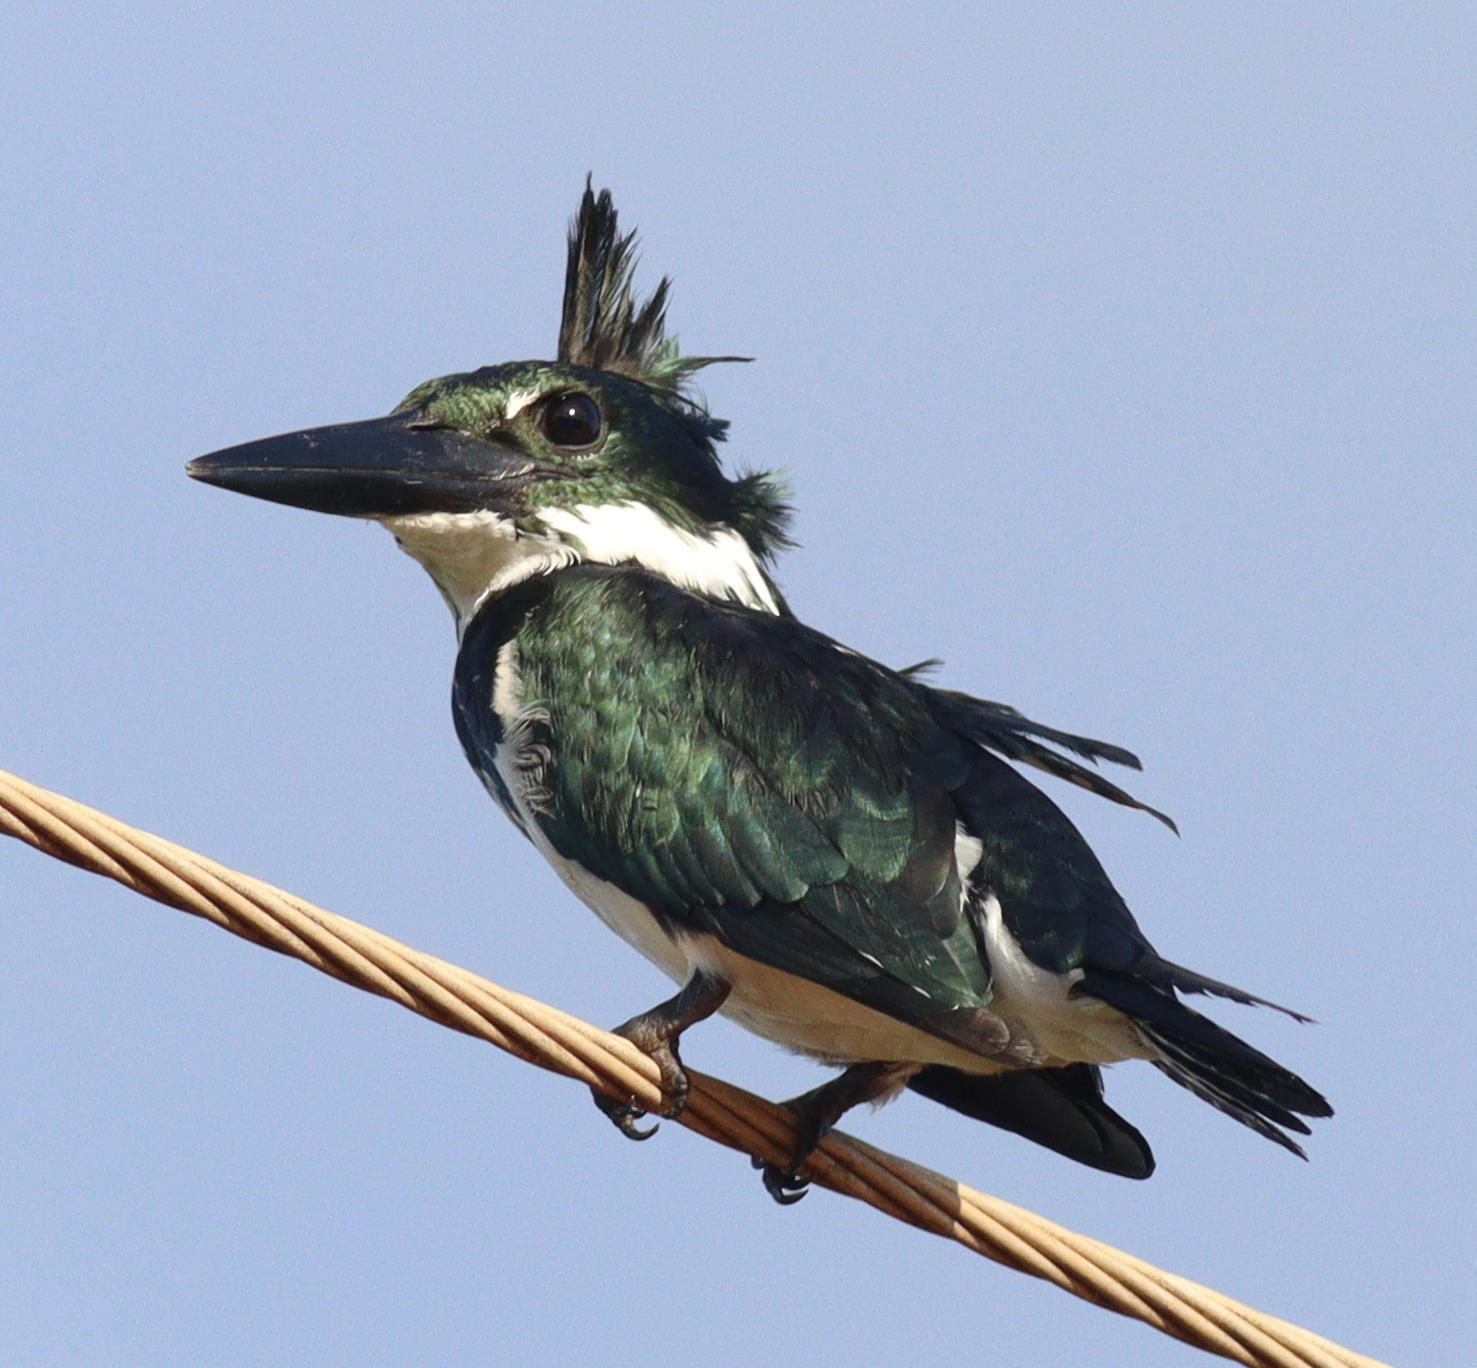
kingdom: Animalia
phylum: Chordata
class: Aves
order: Coraciiformes
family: Alcedinidae
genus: Chloroceryle
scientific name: Chloroceryle amazona
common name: Amazon kingfisher
